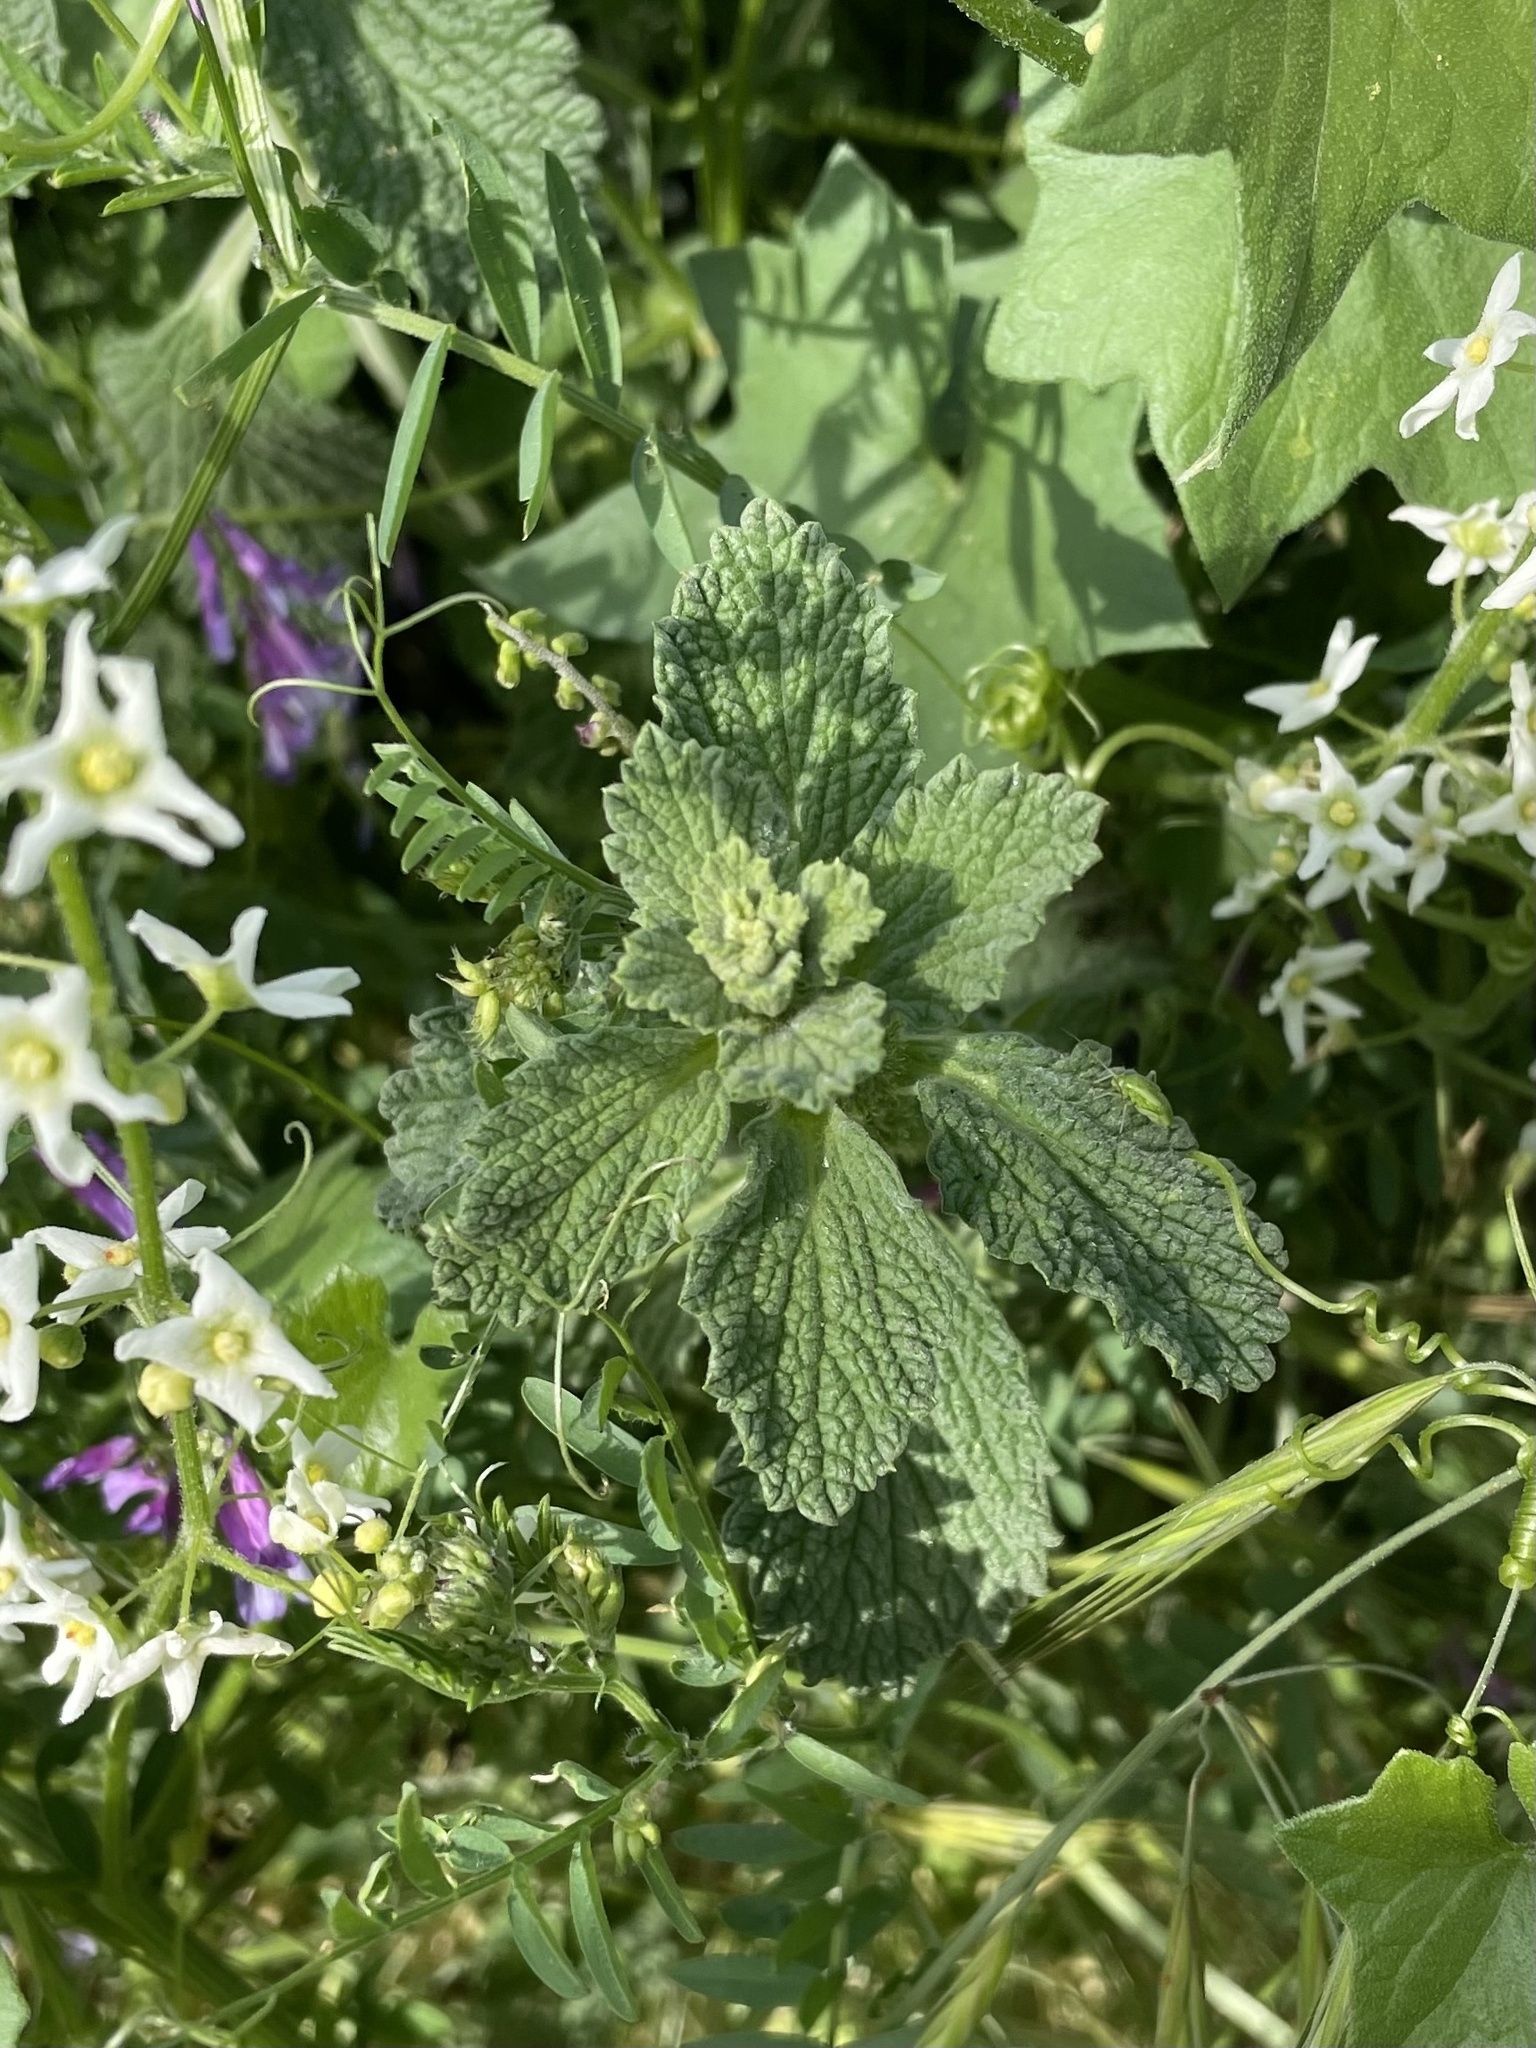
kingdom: Plantae
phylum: Tracheophyta
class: Magnoliopsida
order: Lamiales
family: Lamiaceae
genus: Marrubium
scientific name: Marrubium vulgare
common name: Horehound
